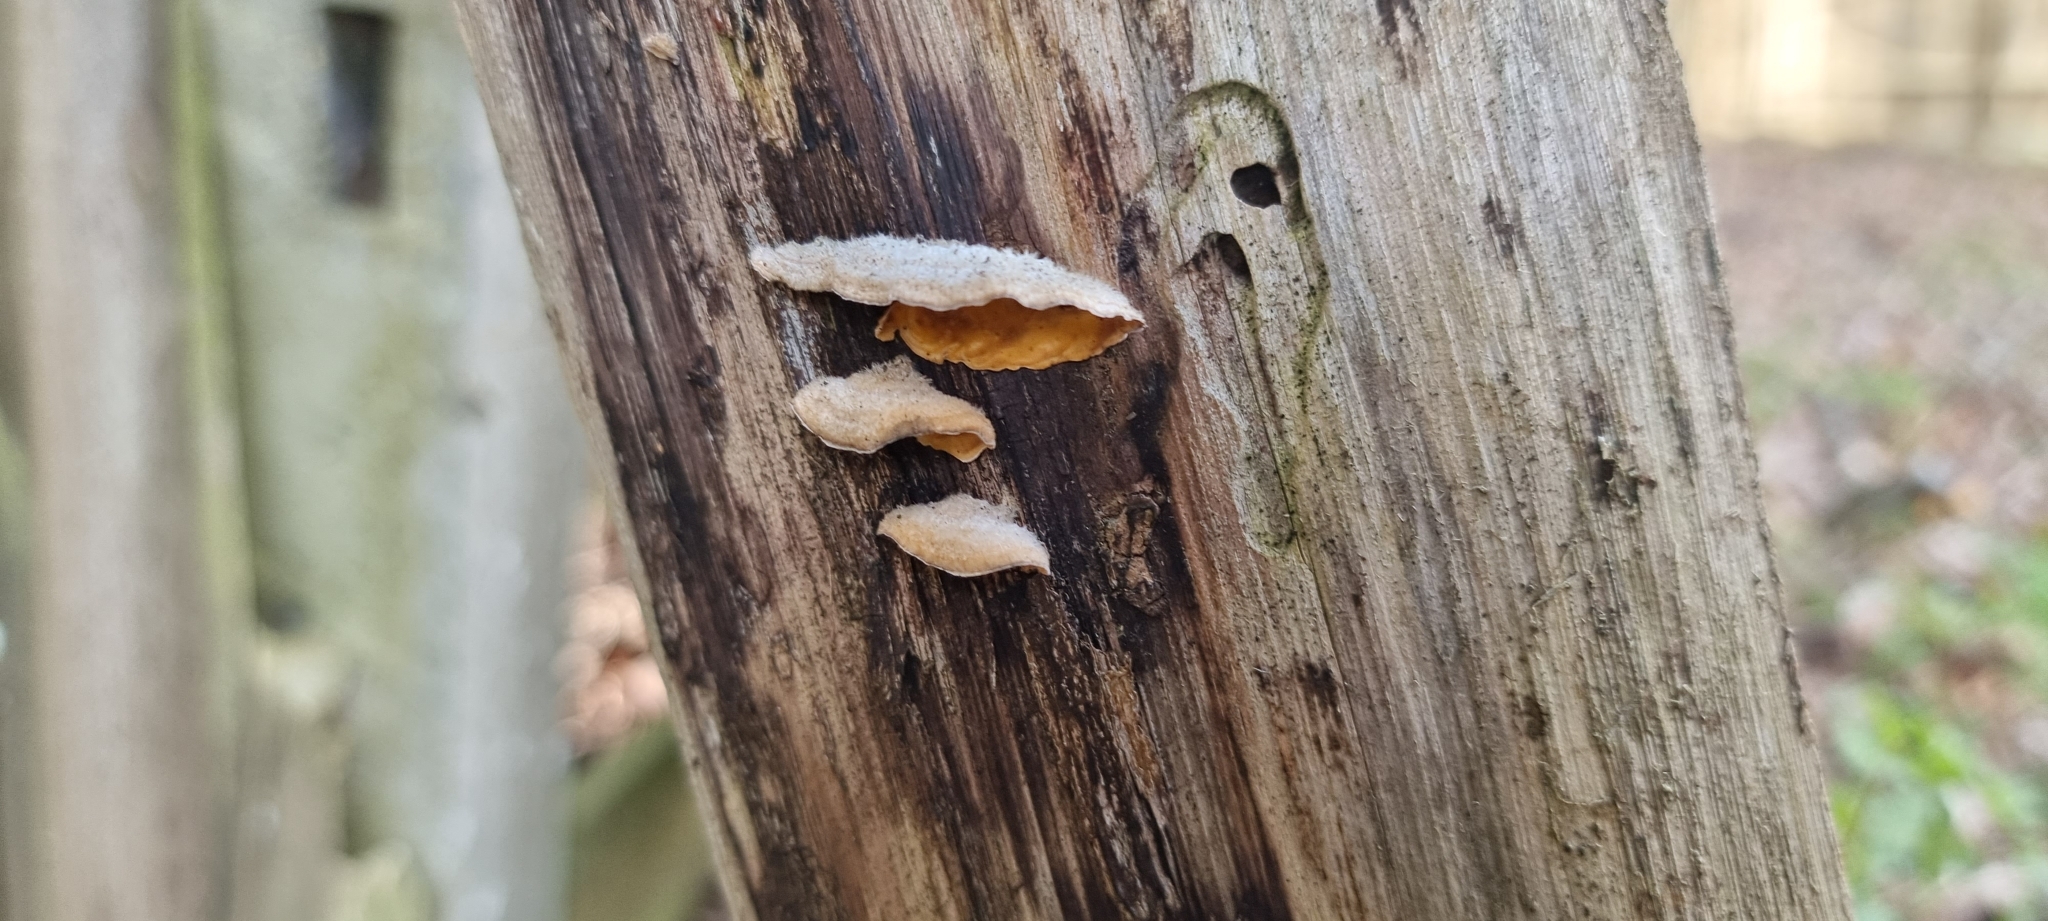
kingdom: Fungi
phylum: Basidiomycota
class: Agaricomycetes
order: Russulales
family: Stereaceae
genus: Stereum
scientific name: Stereum hirsutum
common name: Hairy curtain crust
